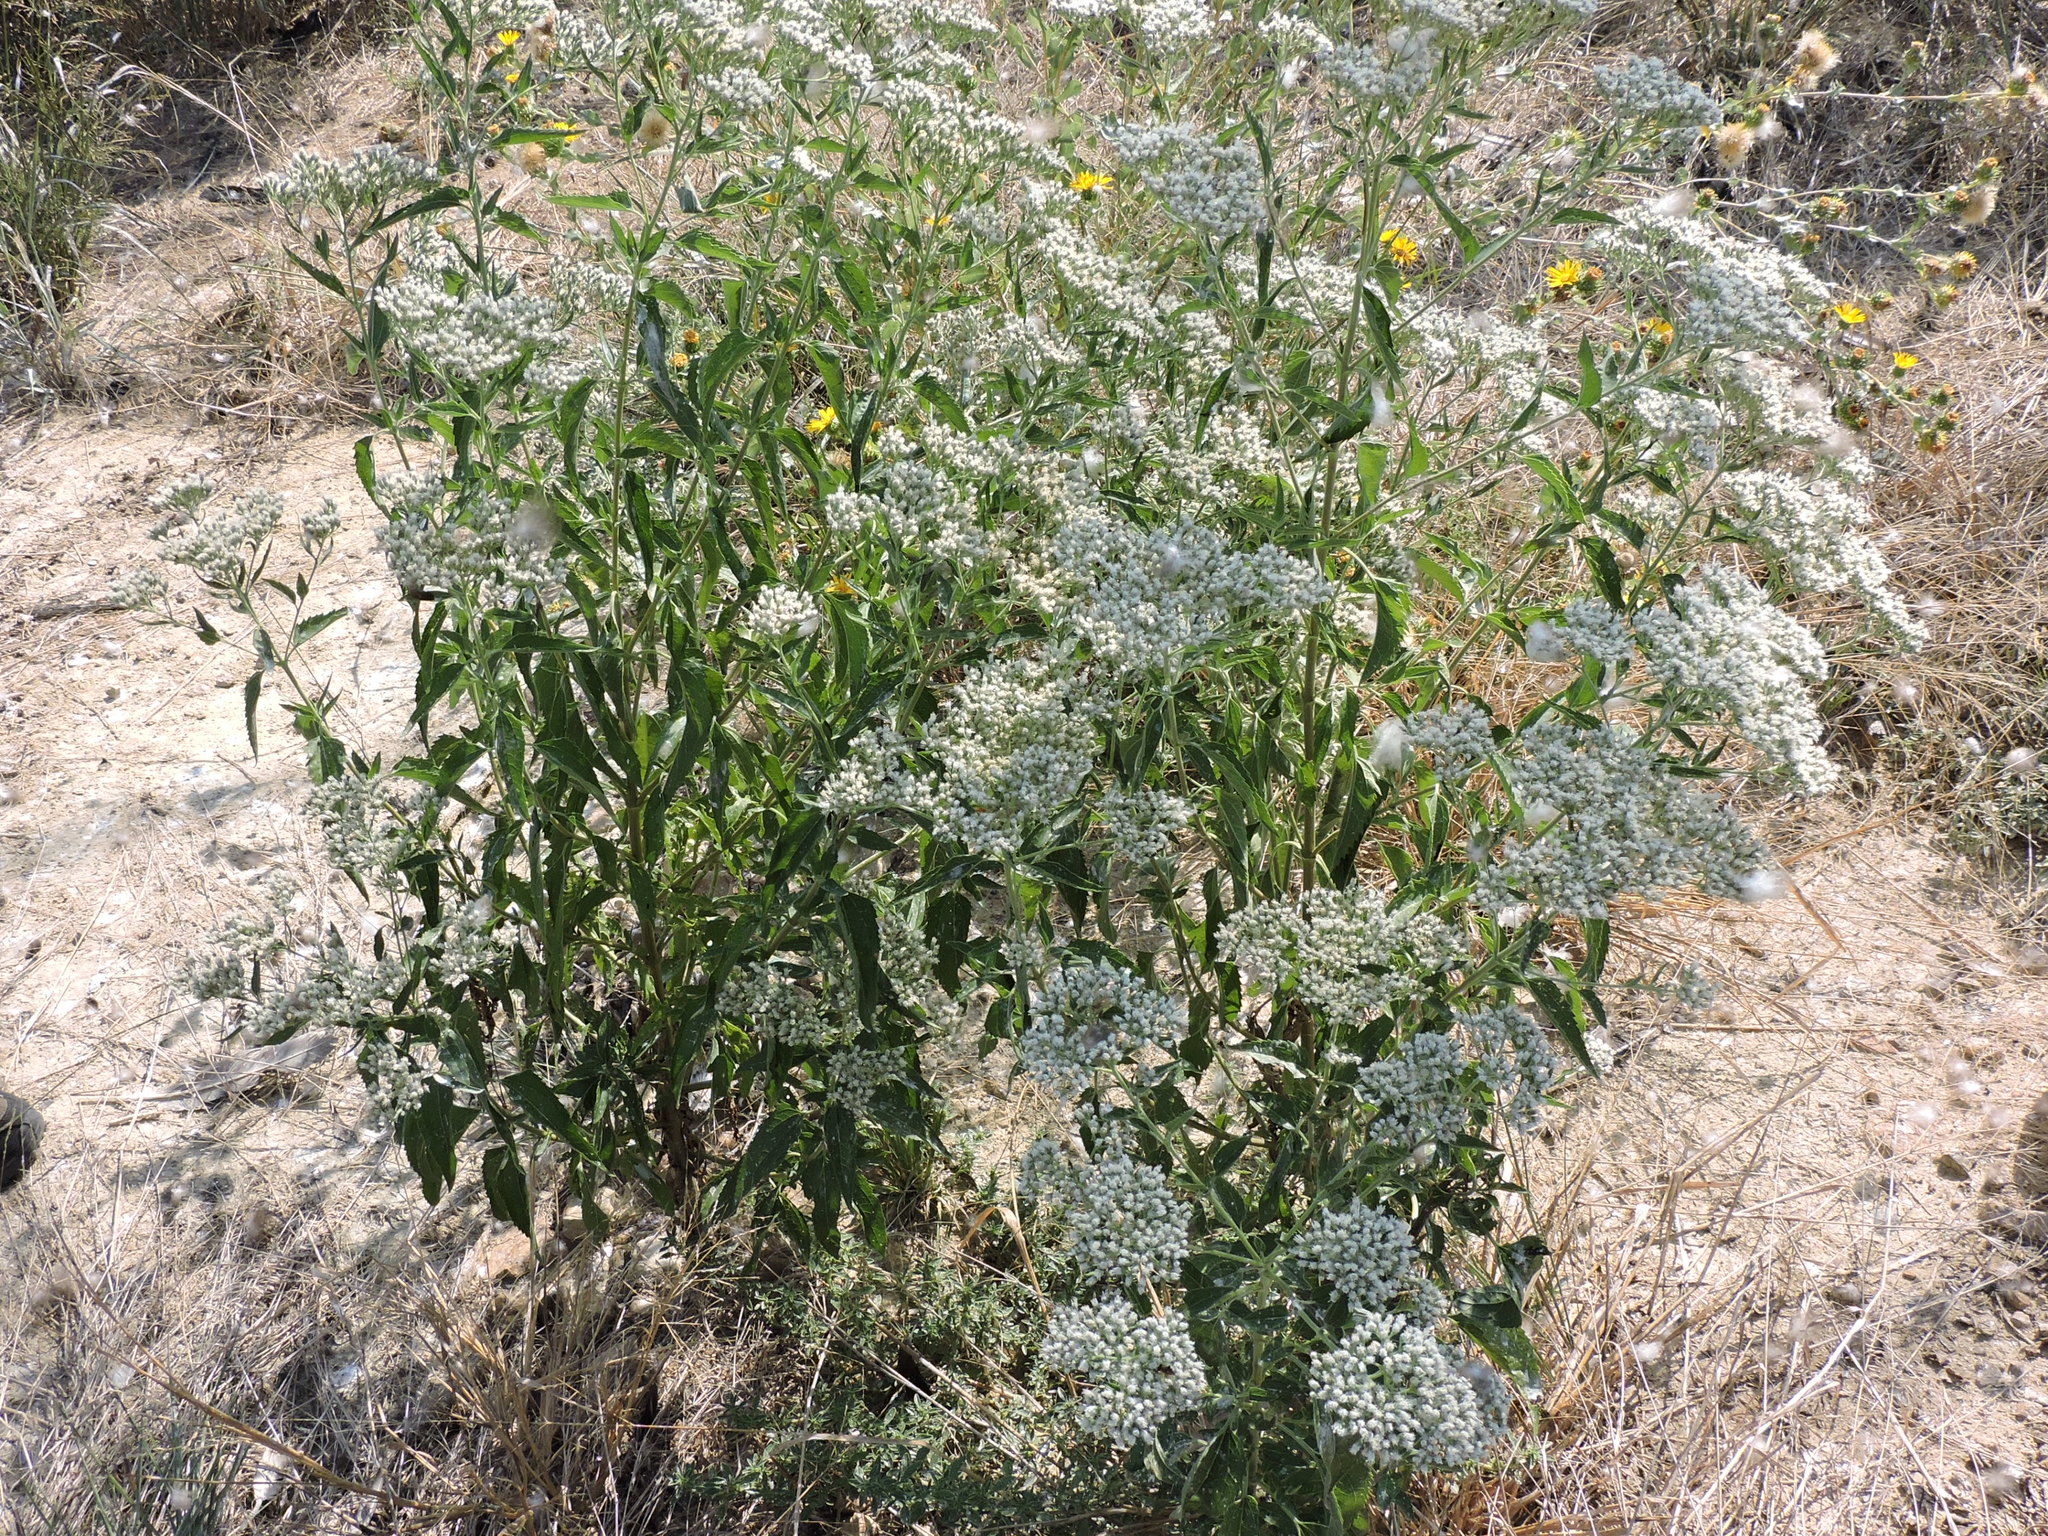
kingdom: Plantae
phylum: Tracheophyta
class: Magnoliopsida
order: Asterales
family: Asteraceae
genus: Eupatorium
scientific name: Eupatorium serotinum
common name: Late boneset
